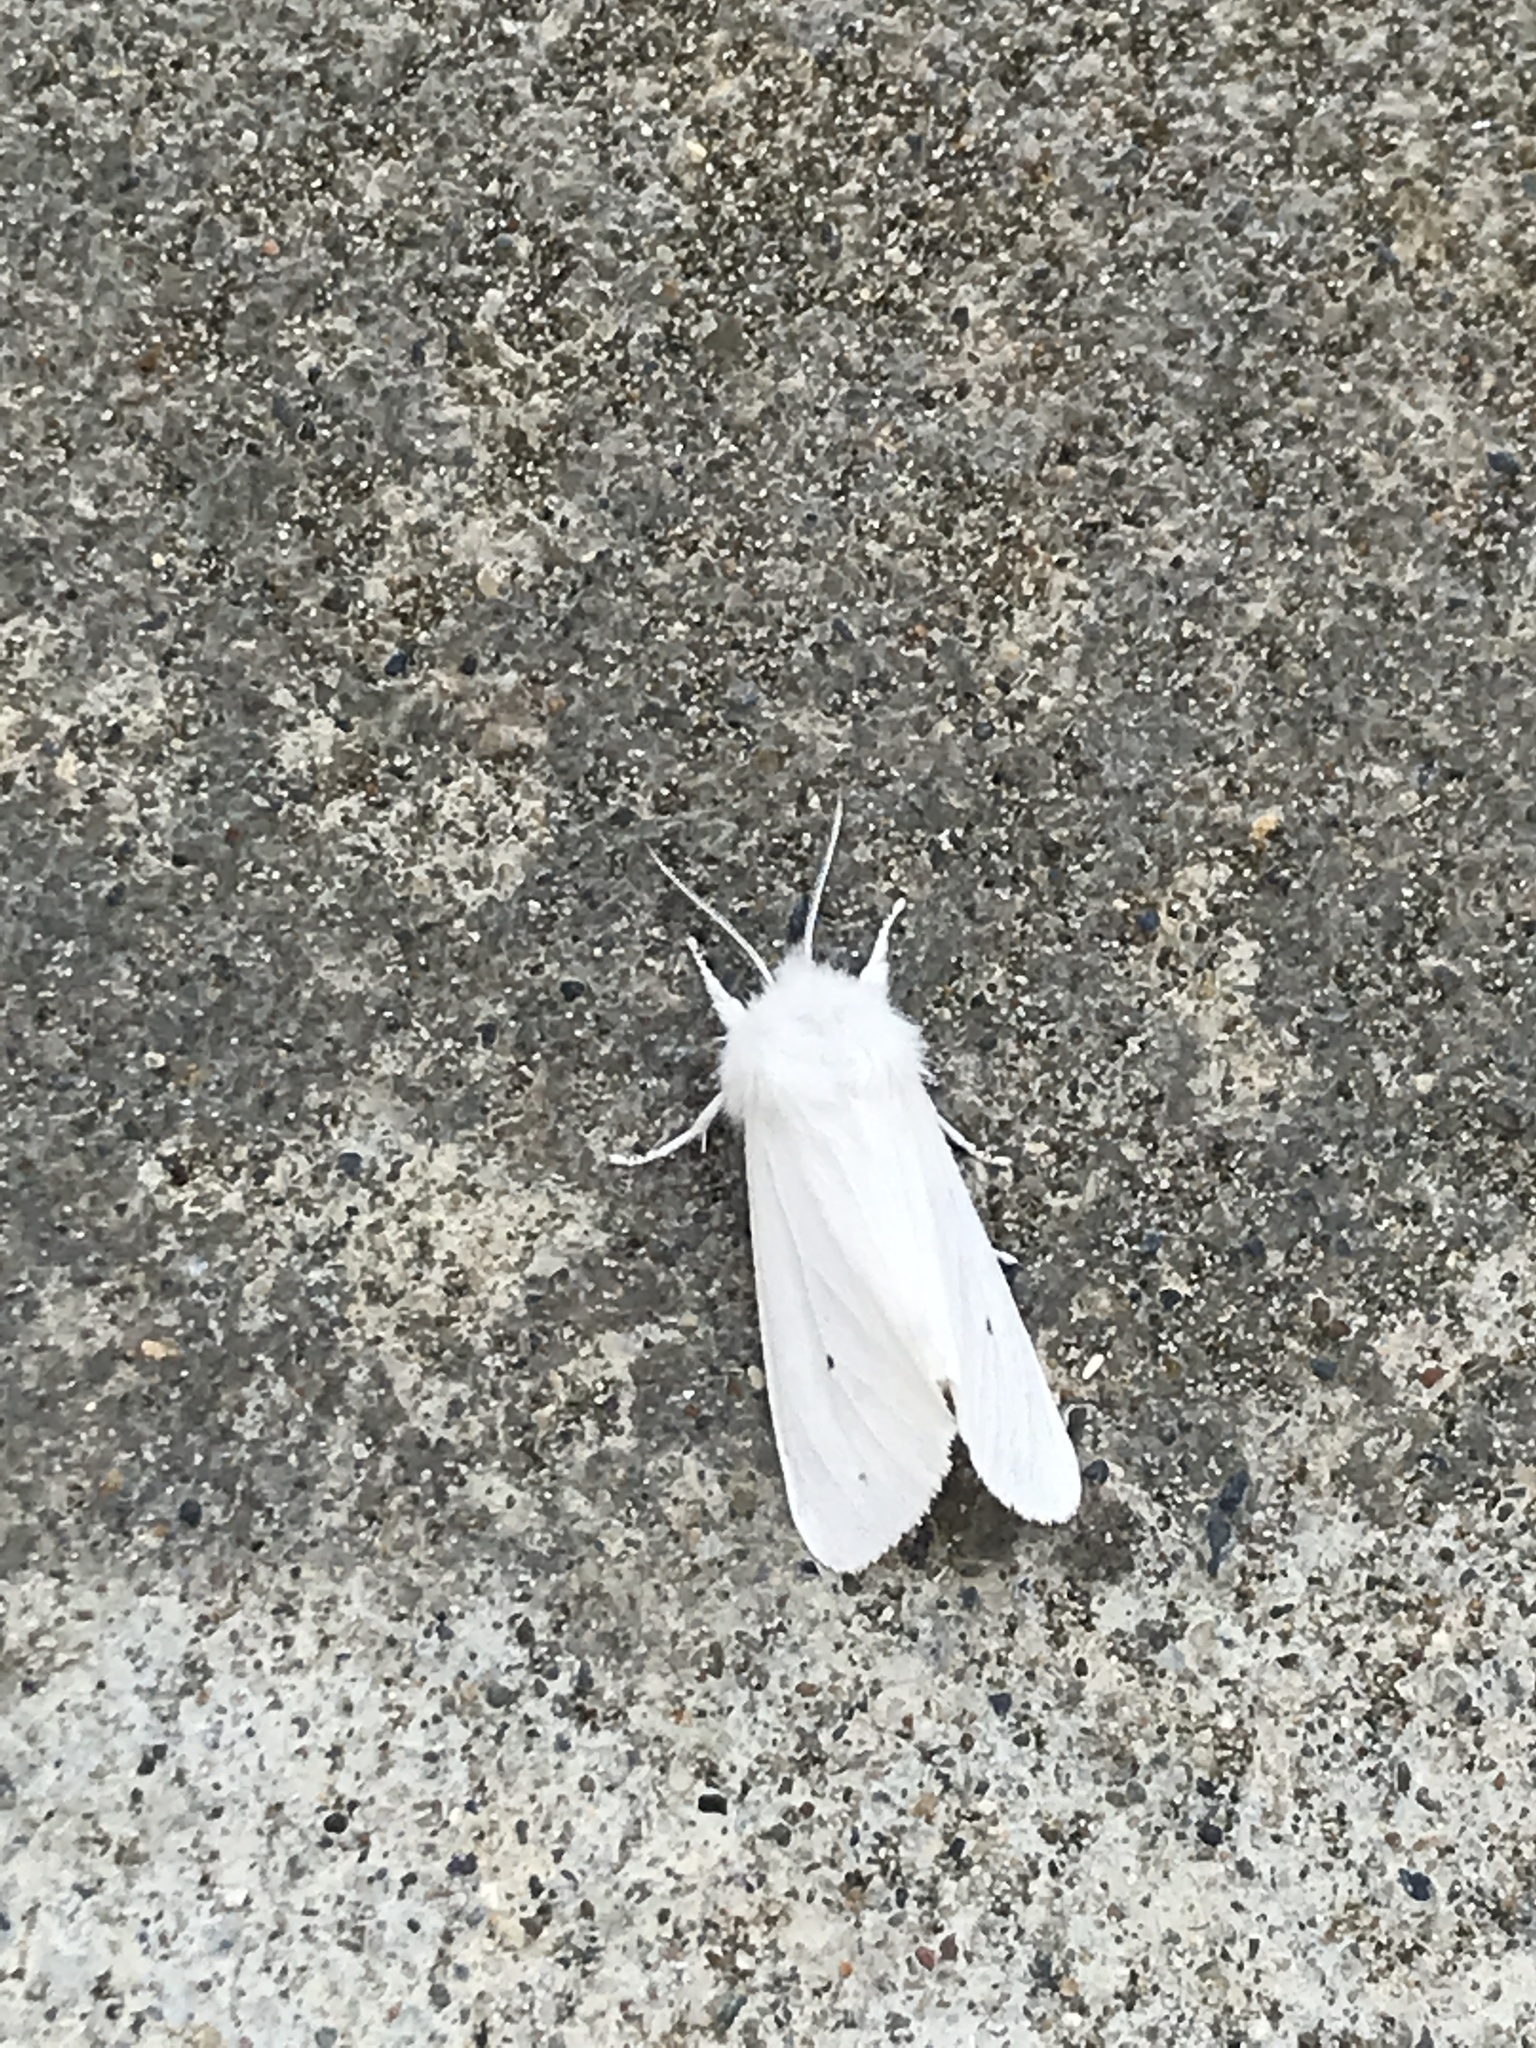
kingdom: Animalia
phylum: Arthropoda
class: Insecta
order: Lepidoptera
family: Erebidae
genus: Spilosoma
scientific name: Spilosoma virginica
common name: Virginia tiger moth
